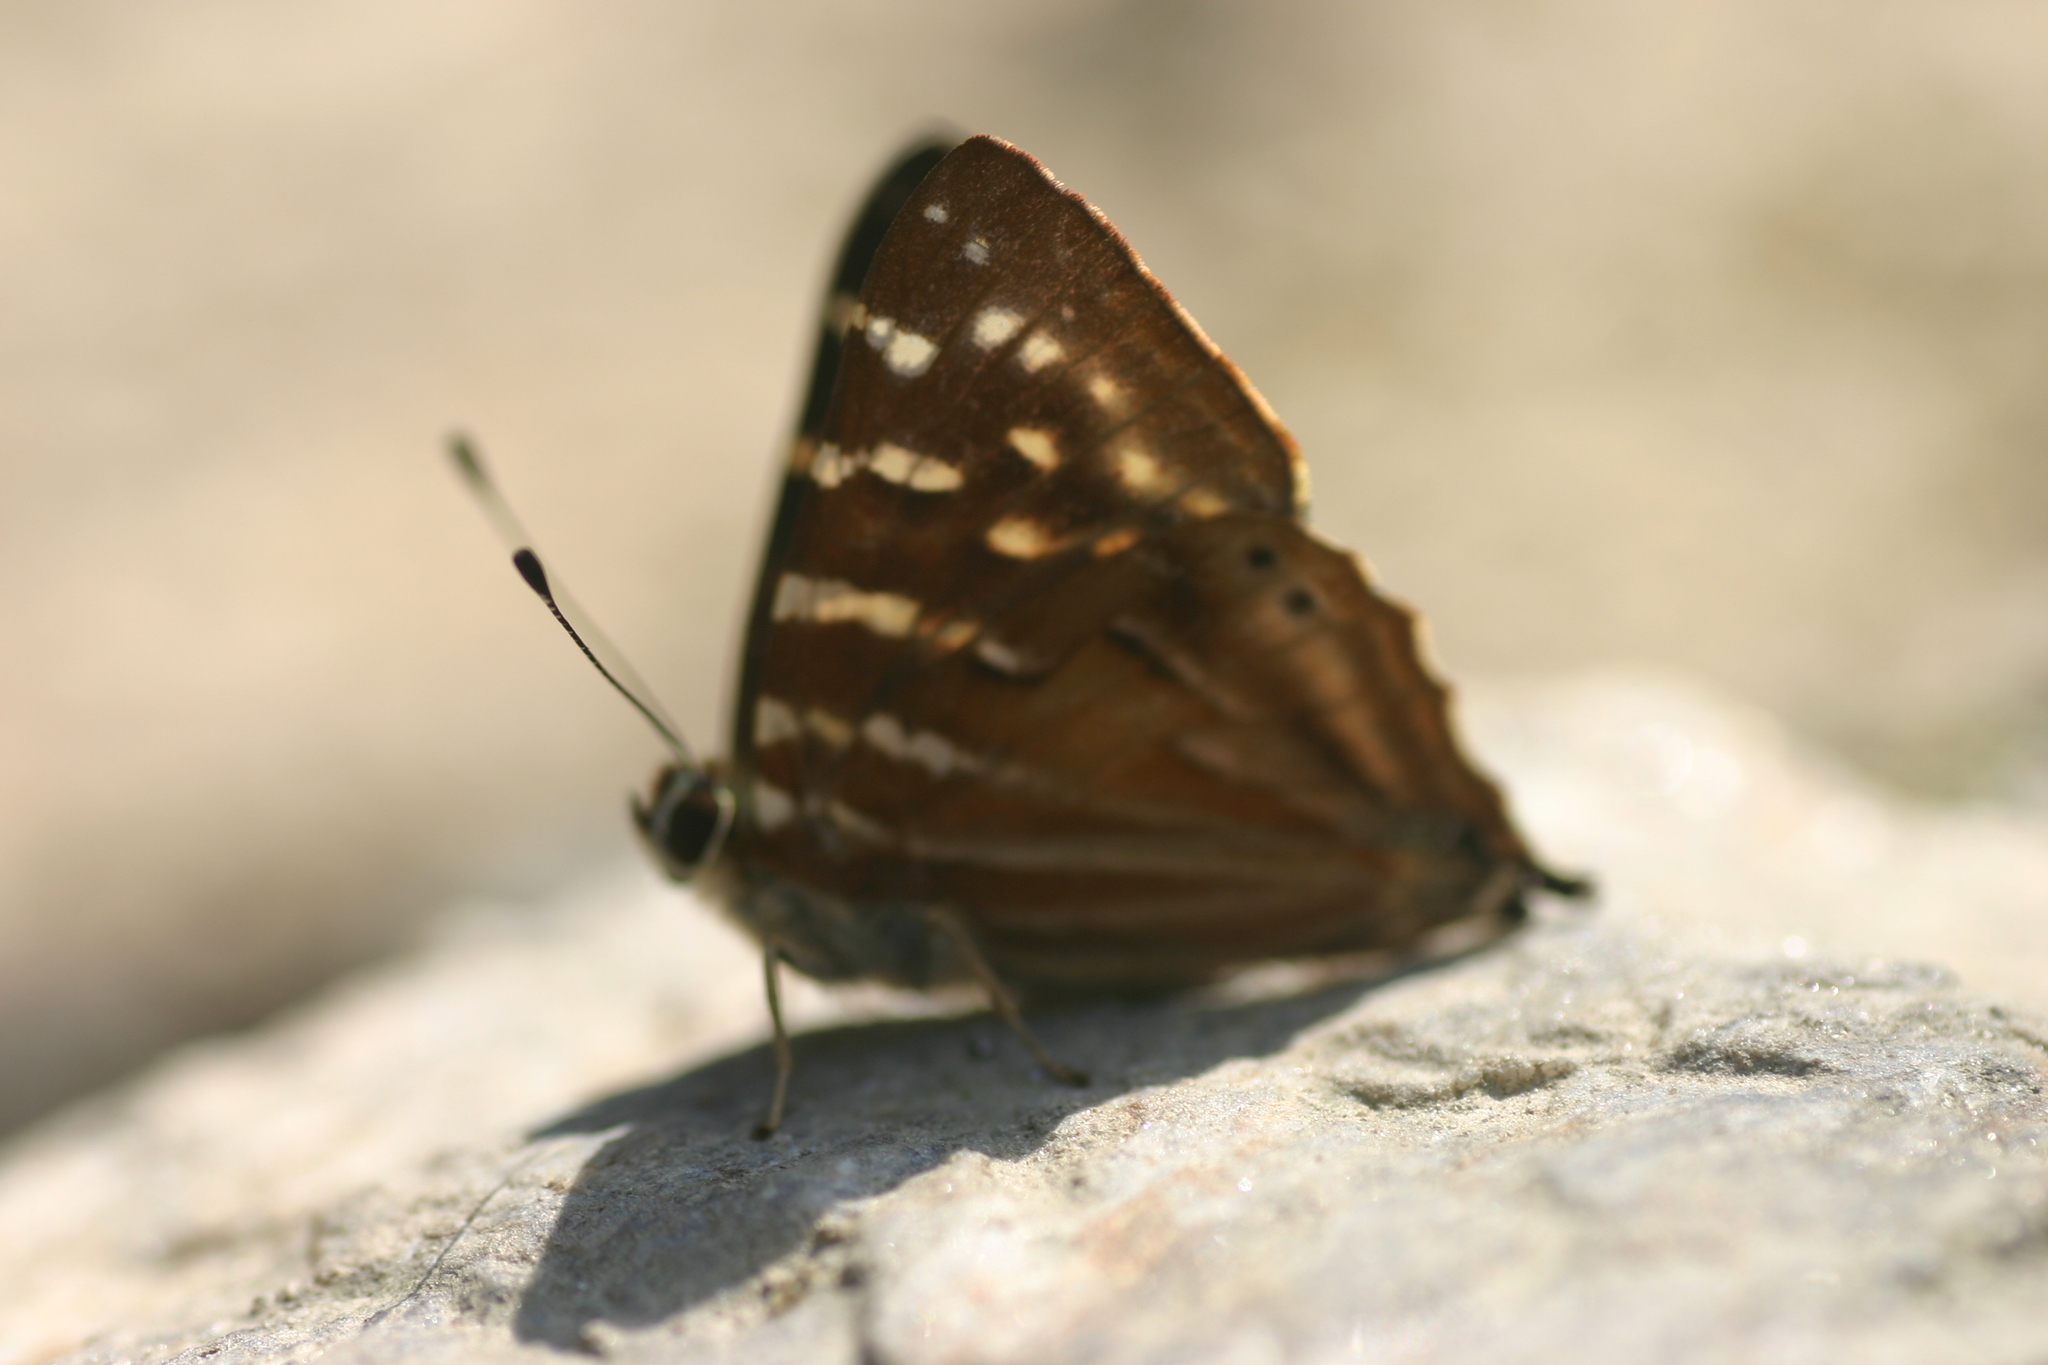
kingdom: Animalia
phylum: Arthropoda
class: Insecta
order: Lepidoptera
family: Lycaenidae
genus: Dodona
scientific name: Dodona dipoea
